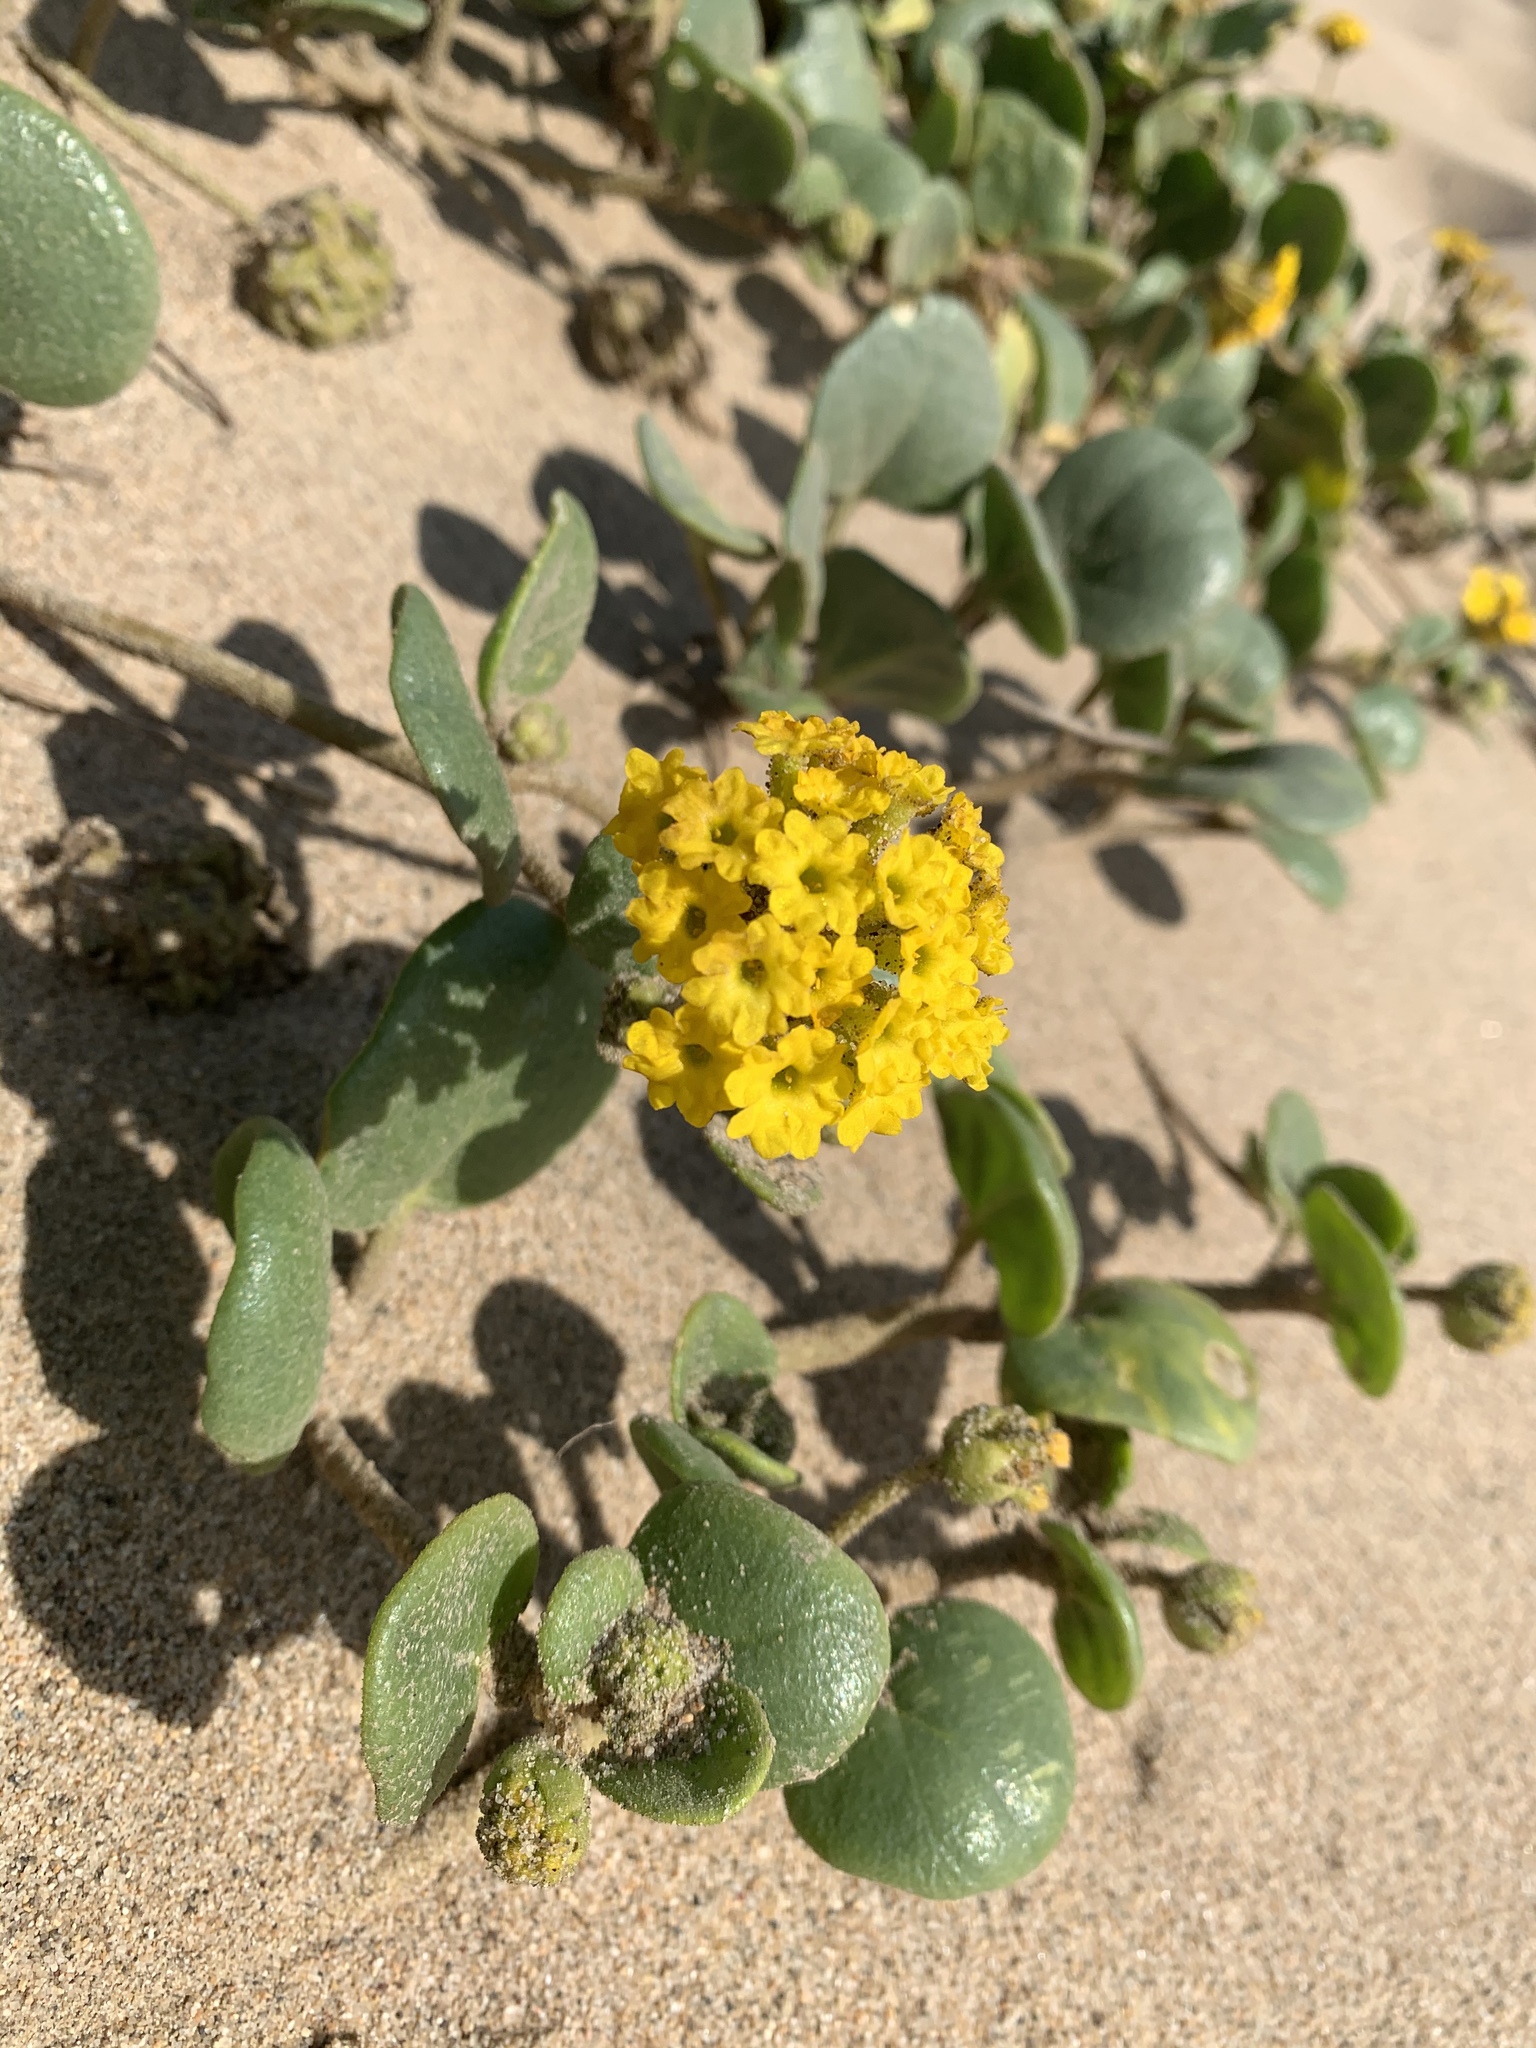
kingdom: Plantae
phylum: Tracheophyta
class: Magnoliopsida
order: Caryophyllales
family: Nyctaginaceae
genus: Abronia
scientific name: Abronia latifolia
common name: Yellow sand-verbena
